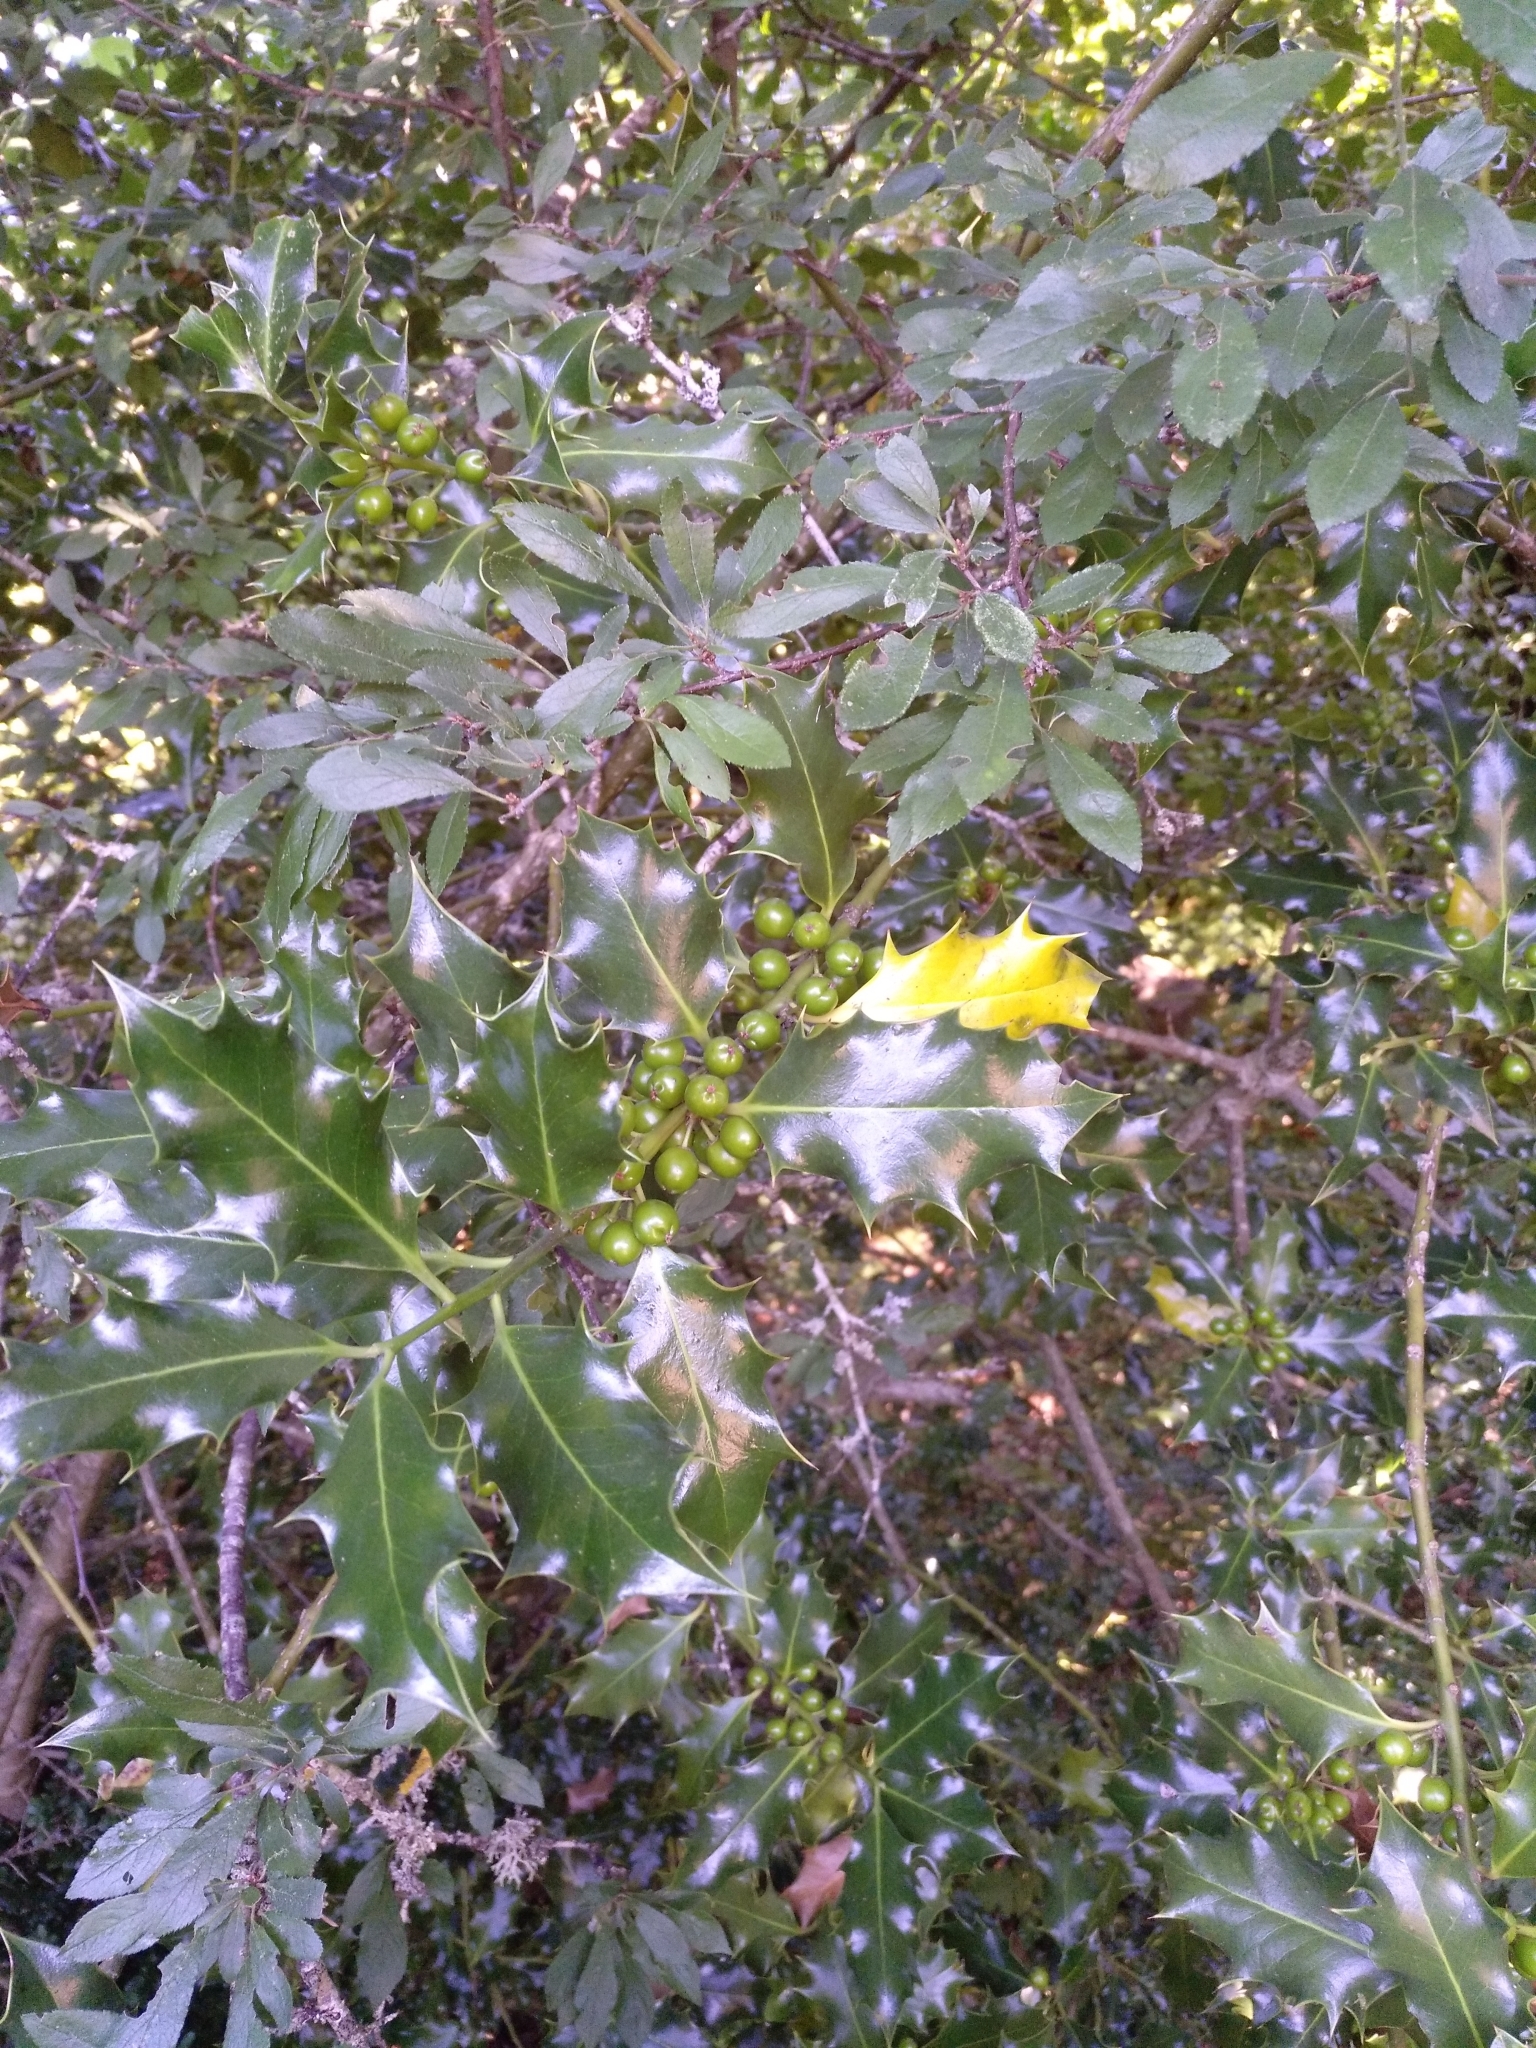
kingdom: Plantae
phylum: Tracheophyta
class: Magnoliopsida
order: Aquifoliales
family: Aquifoliaceae
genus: Ilex
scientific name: Ilex aquifolium
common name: English holly
